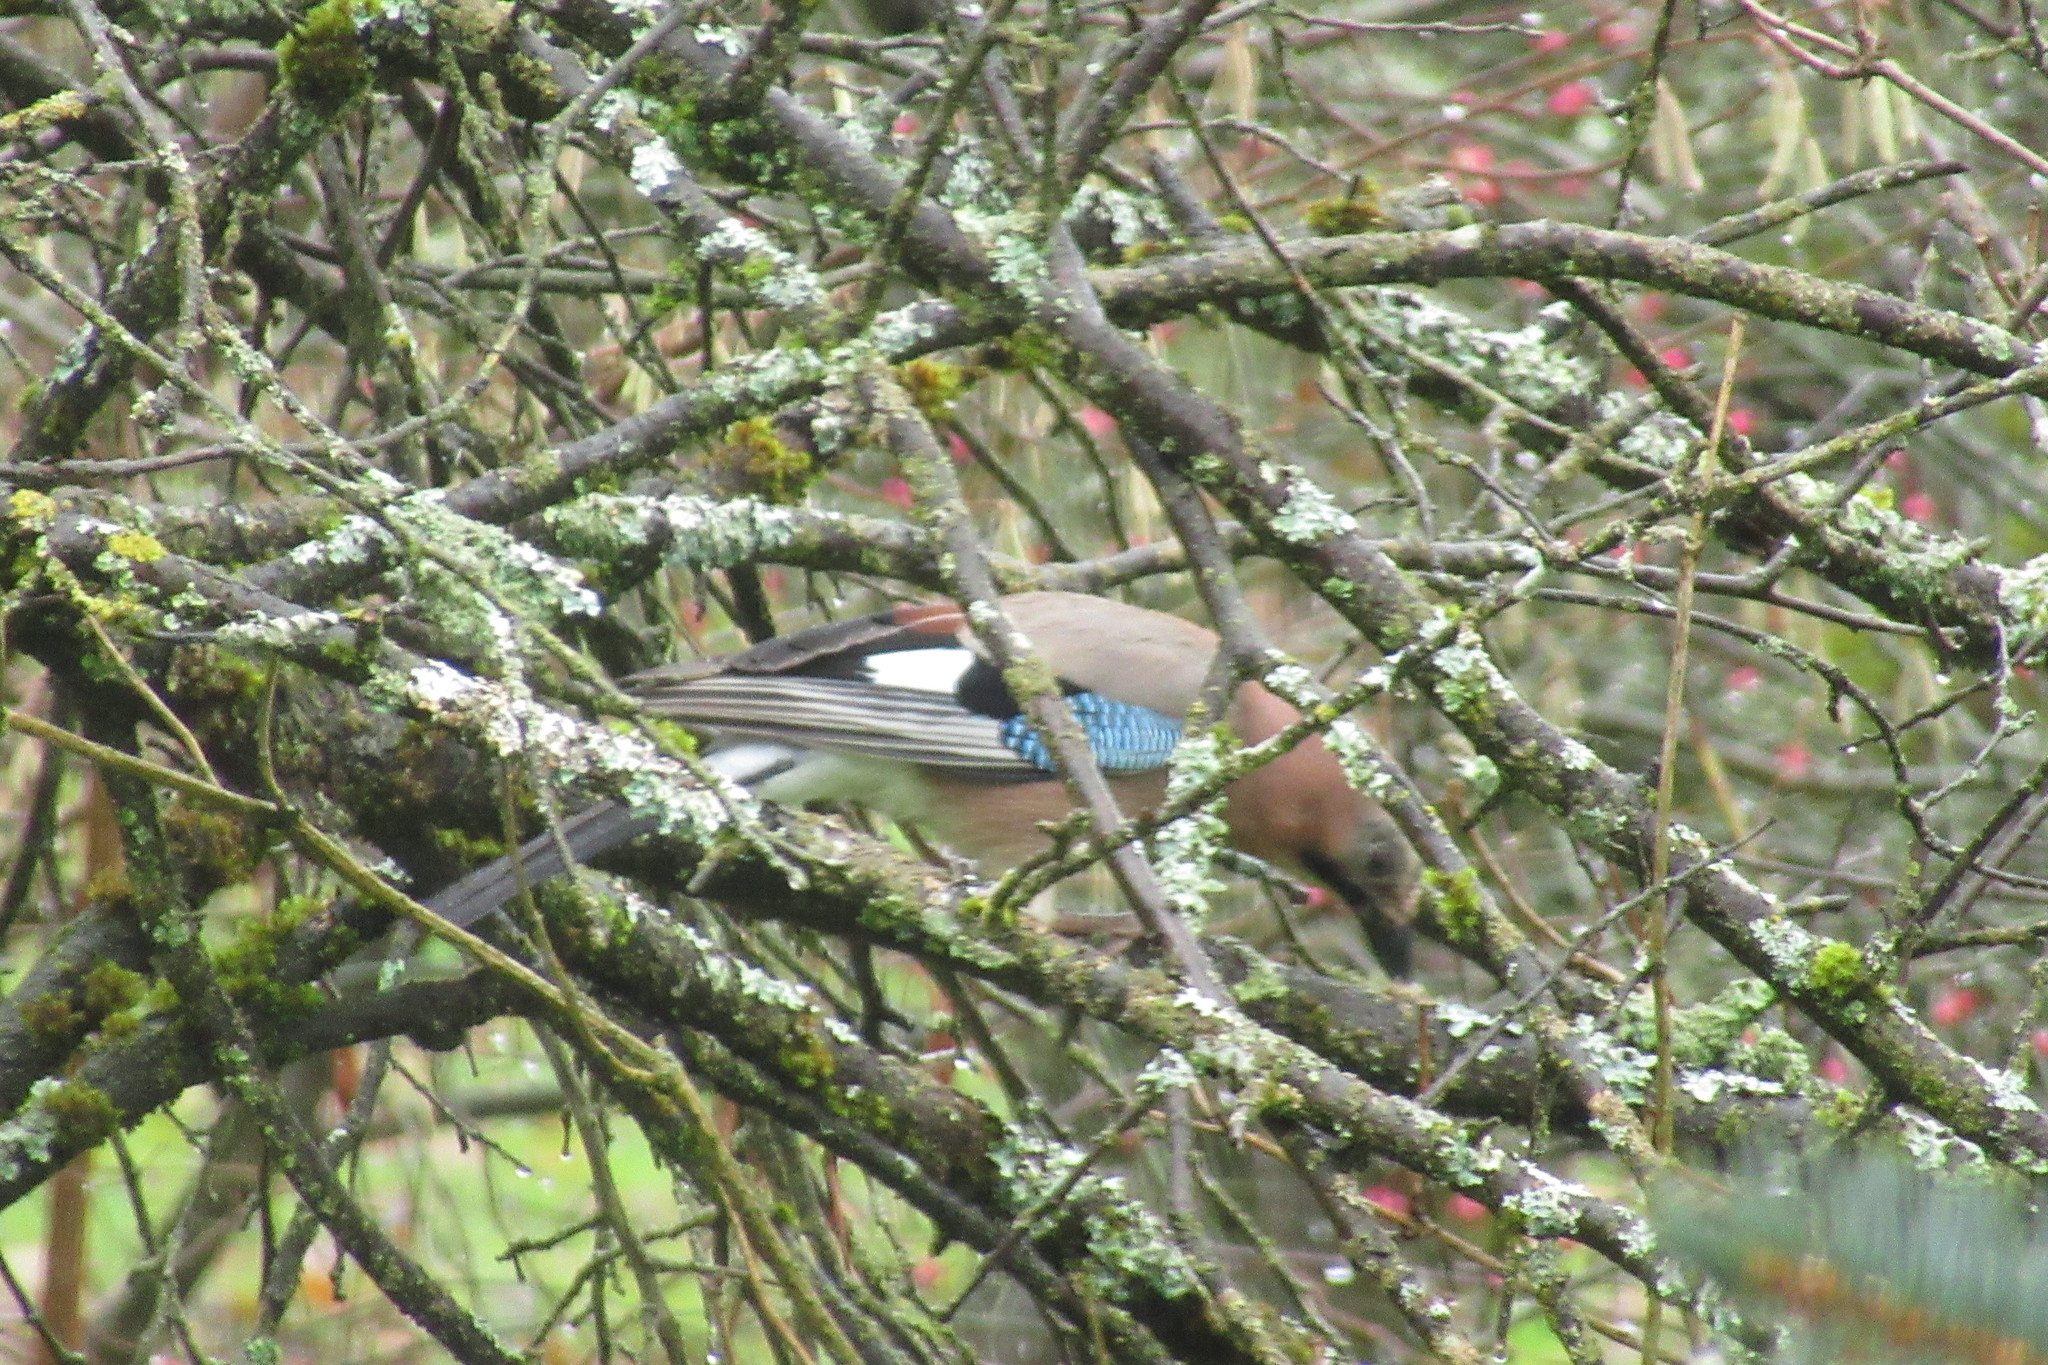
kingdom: Animalia
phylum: Chordata
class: Aves
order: Passeriformes
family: Corvidae
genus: Garrulus
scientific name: Garrulus glandarius
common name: Eurasian jay
